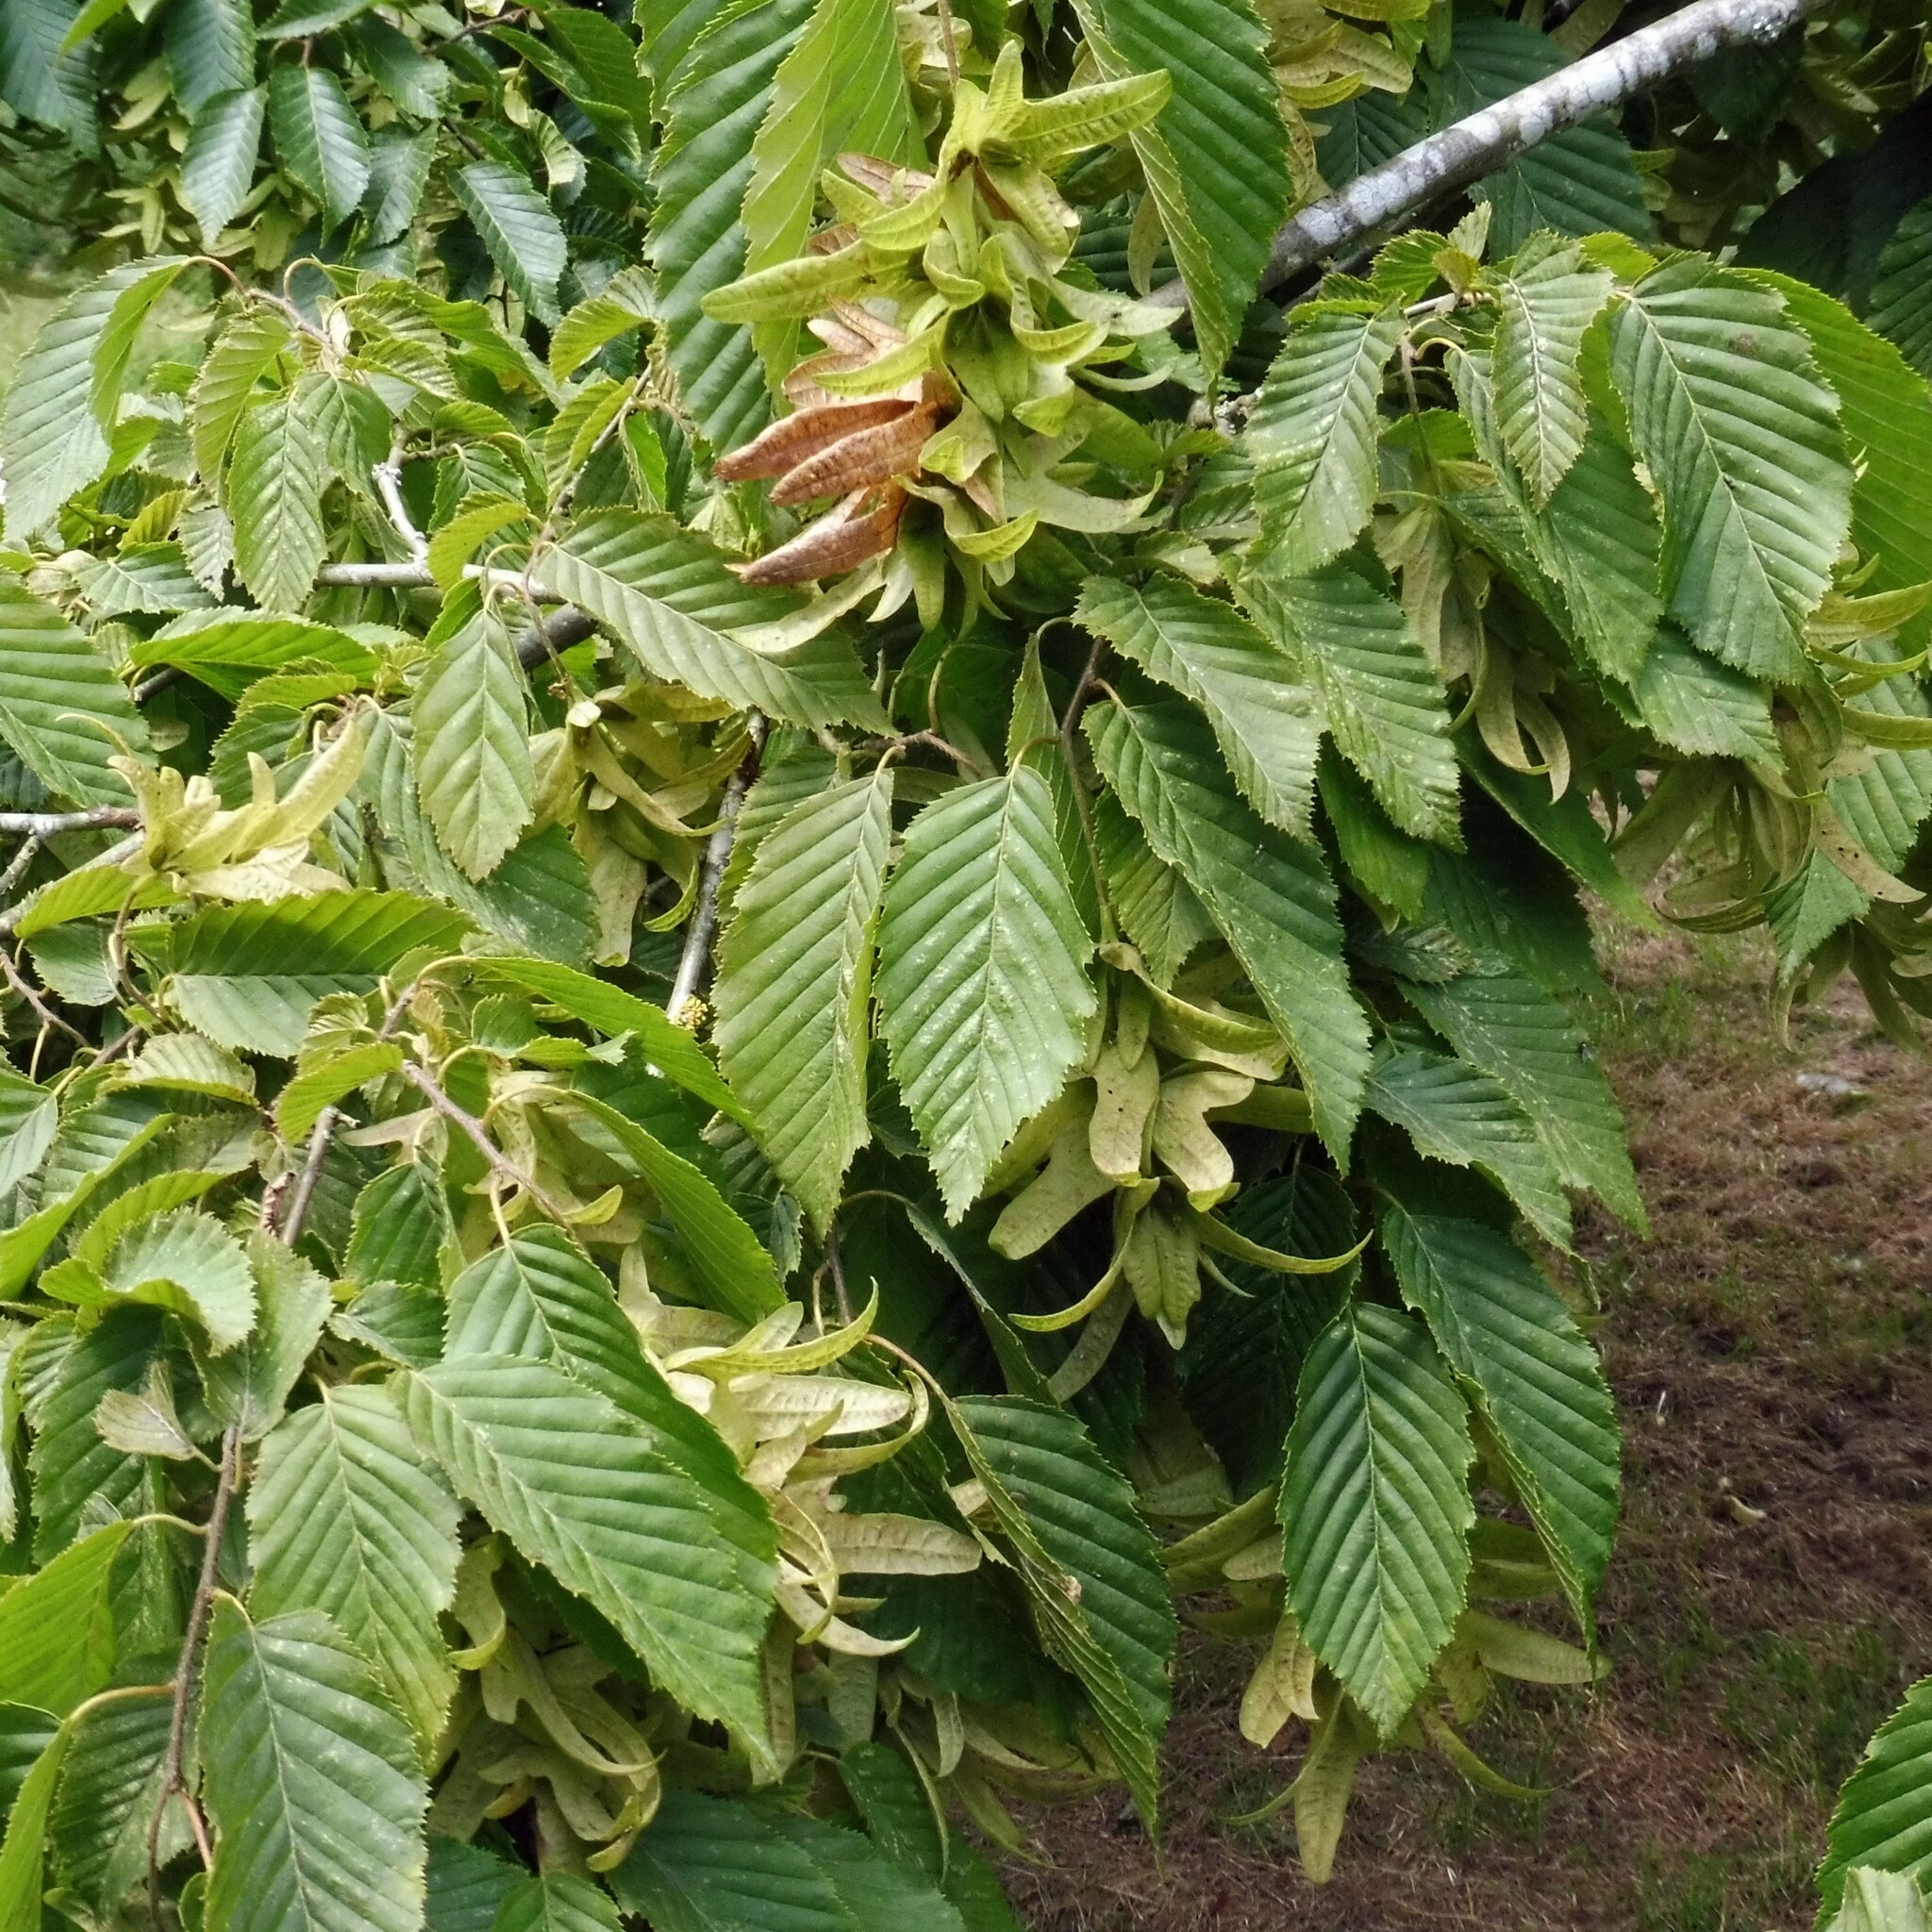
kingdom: Plantae
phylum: Tracheophyta
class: Magnoliopsida
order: Fagales
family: Betulaceae
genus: Carpinus
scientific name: Carpinus betulus
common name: Hornbeam
